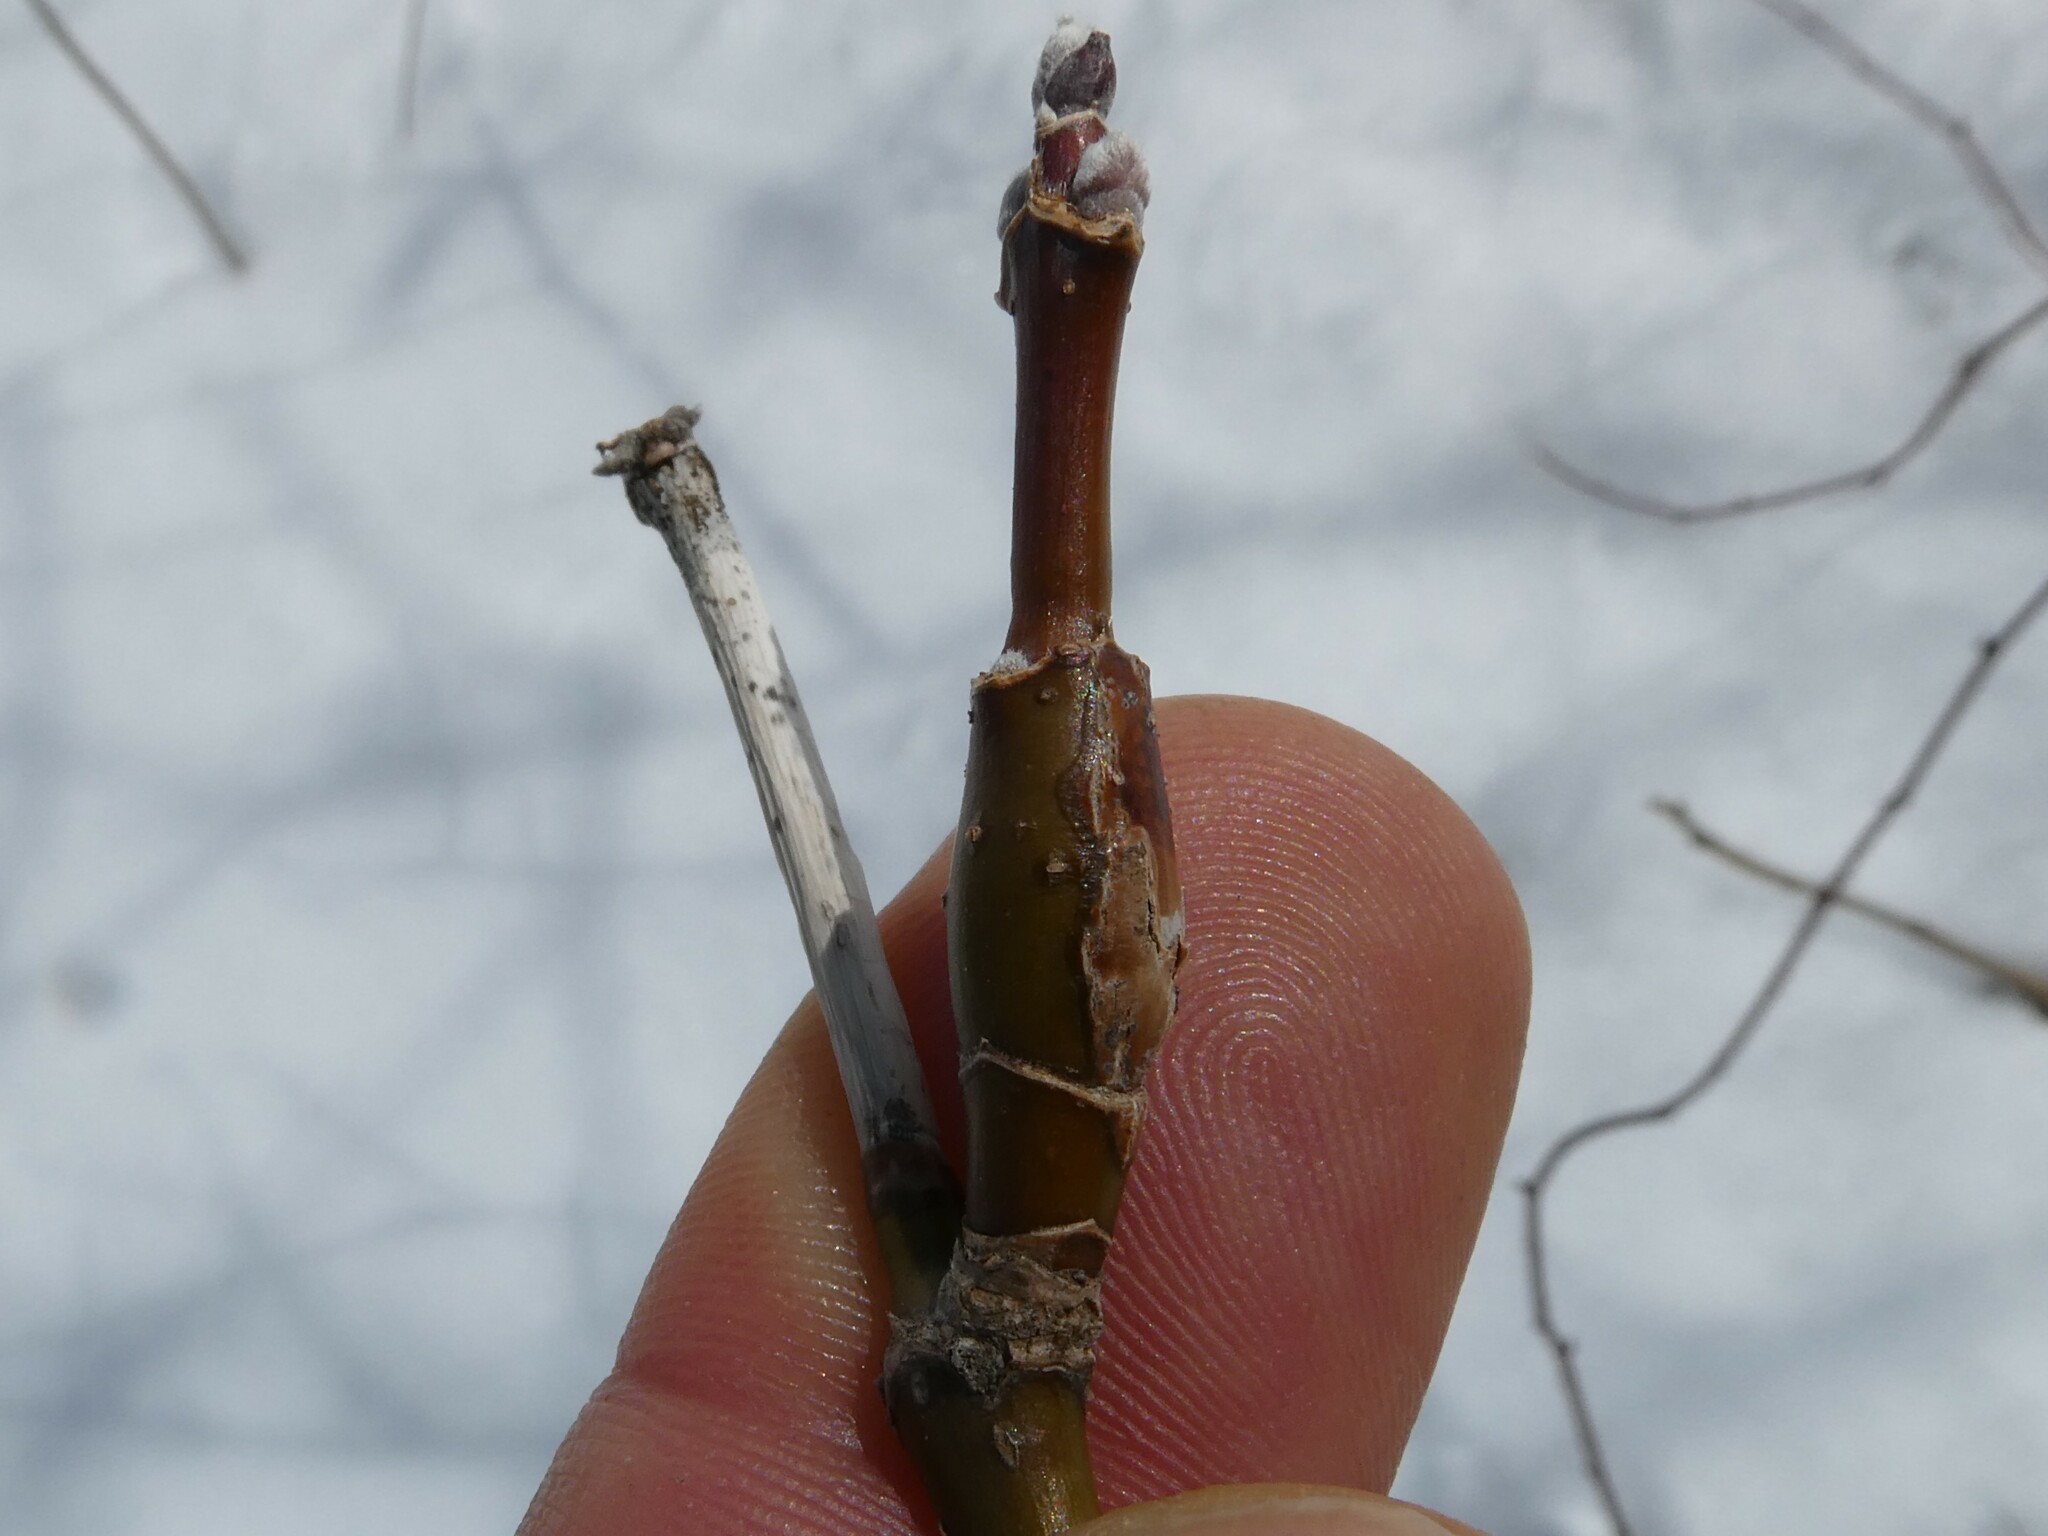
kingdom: Plantae
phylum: Tracheophyta
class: Magnoliopsida
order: Sapindales
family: Sapindaceae
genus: Acer
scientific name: Acer negundo
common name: Ashleaf maple
